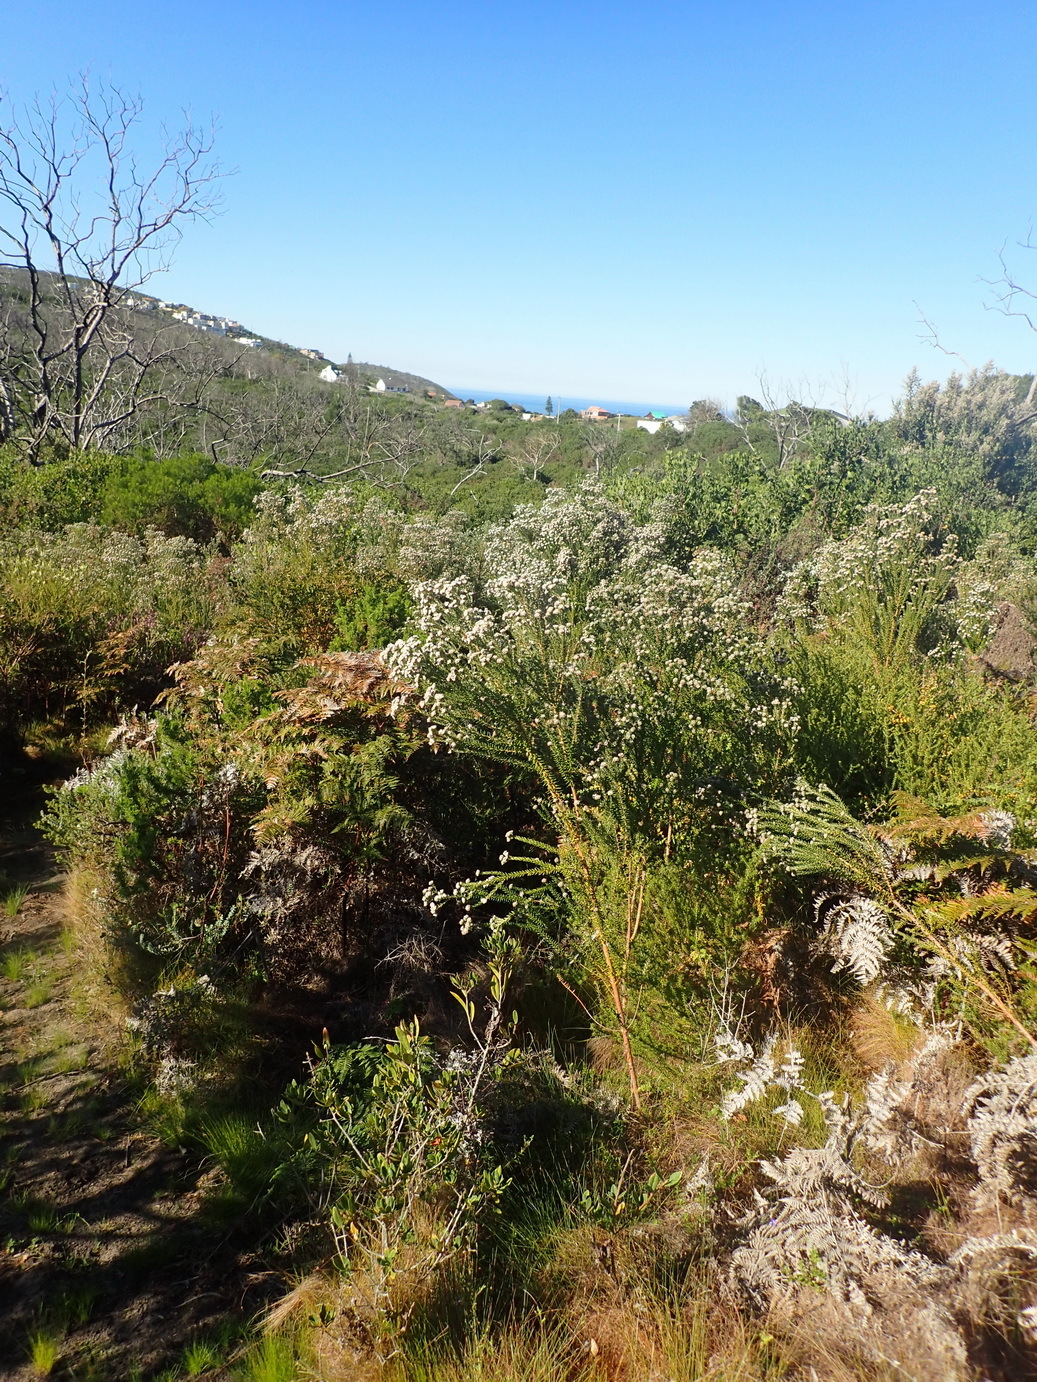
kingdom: Plantae
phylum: Tracheophyta
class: Magnoliopsida
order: Rosales
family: Rhamnaceae
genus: Phylica
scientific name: Phylica purpurea
